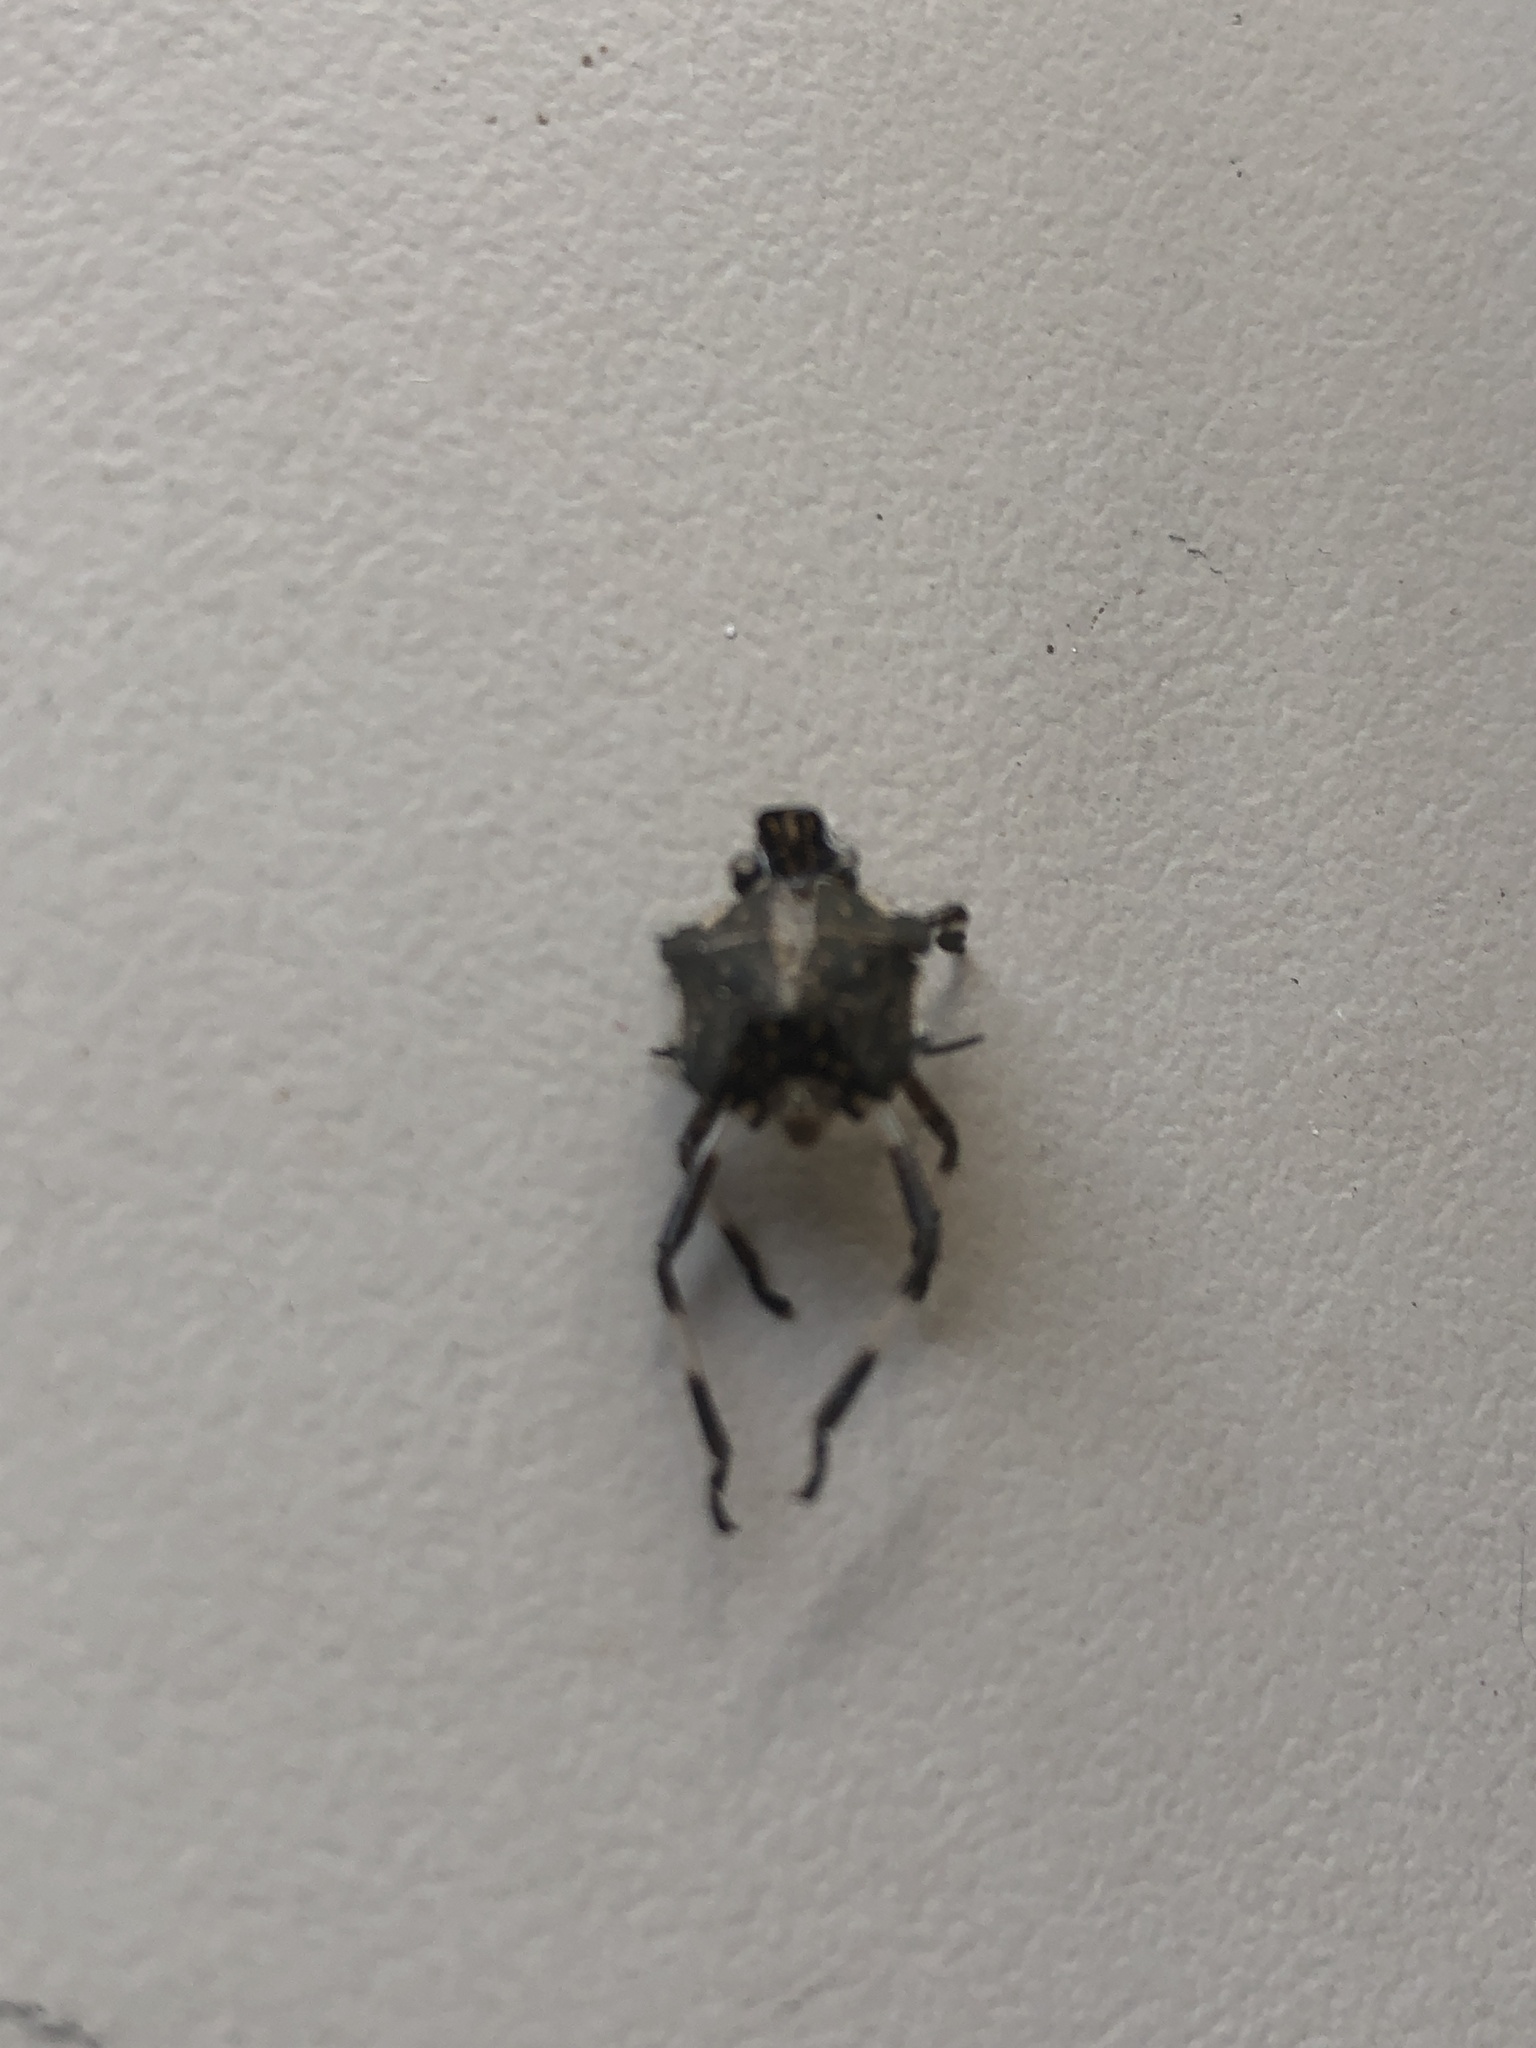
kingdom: Animalia
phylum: Arthropoda
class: Insecta
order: Hemiptera
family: Pentatomidae
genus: Halyomorpha
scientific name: Halyomorpha halys
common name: Brown marmorated stink bug
